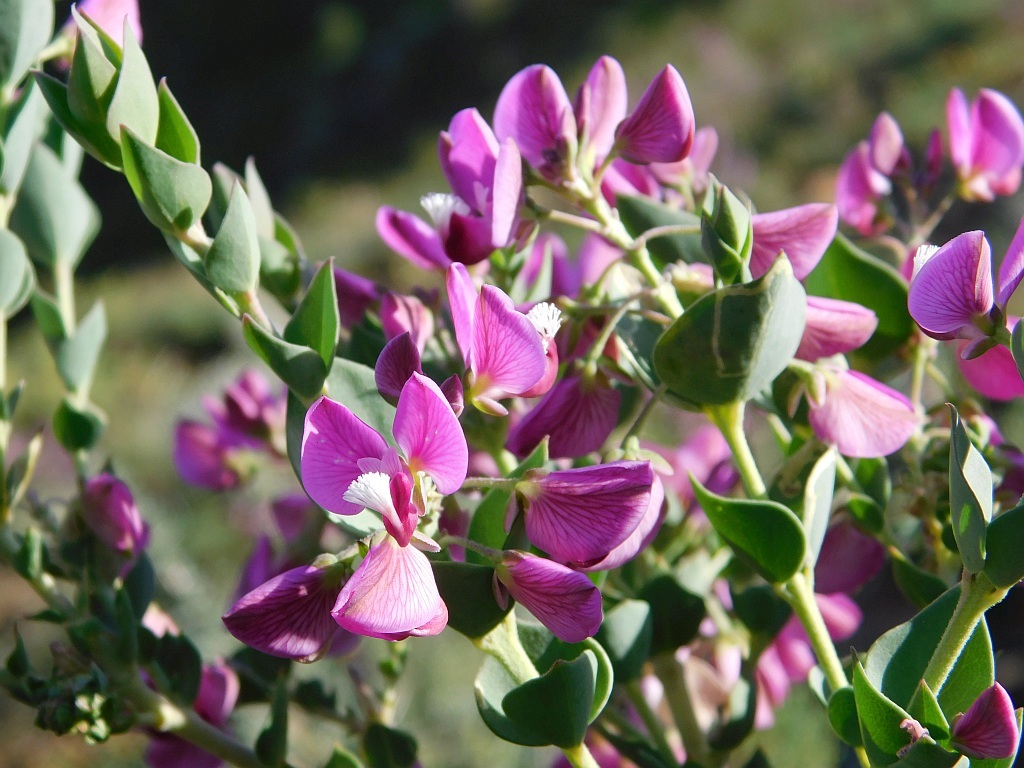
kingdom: Plantae
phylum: Tracheophyta
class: Magnoliopsida
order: Fabales
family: Polygalaceae
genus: Polygala
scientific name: Polygala fruticosa
